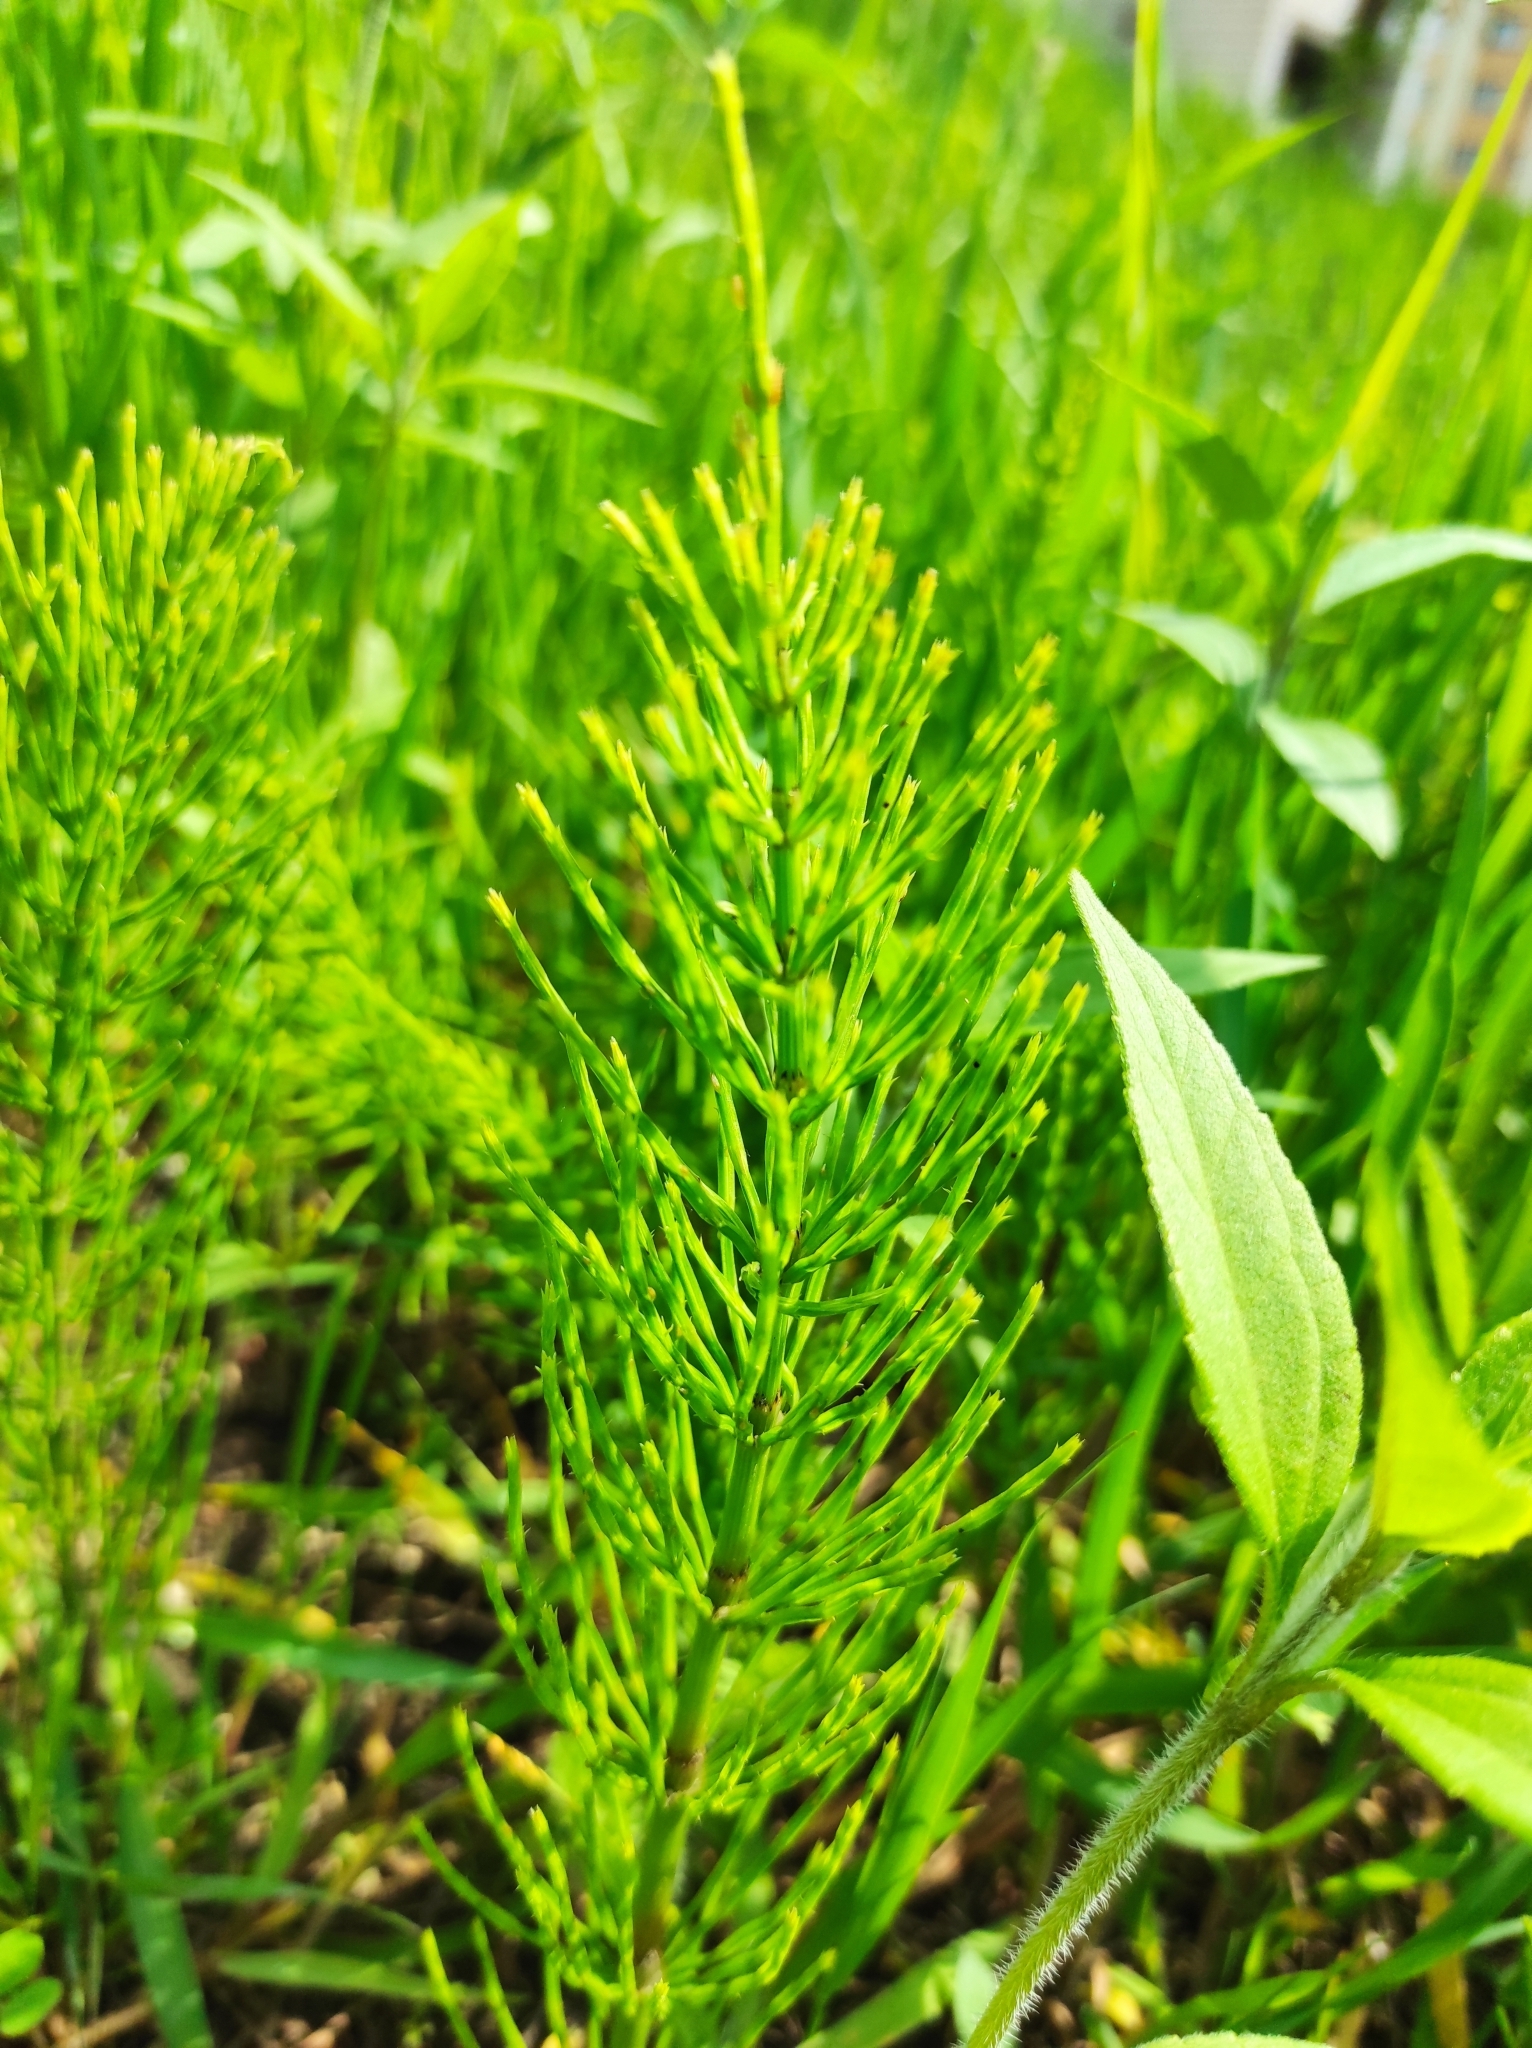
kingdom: Plantae
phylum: Tracheophyta
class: Polypodiopsida
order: Equisetales
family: Equisetaceae
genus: Equisetum
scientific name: Equisetum arvense
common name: Field horsetail
